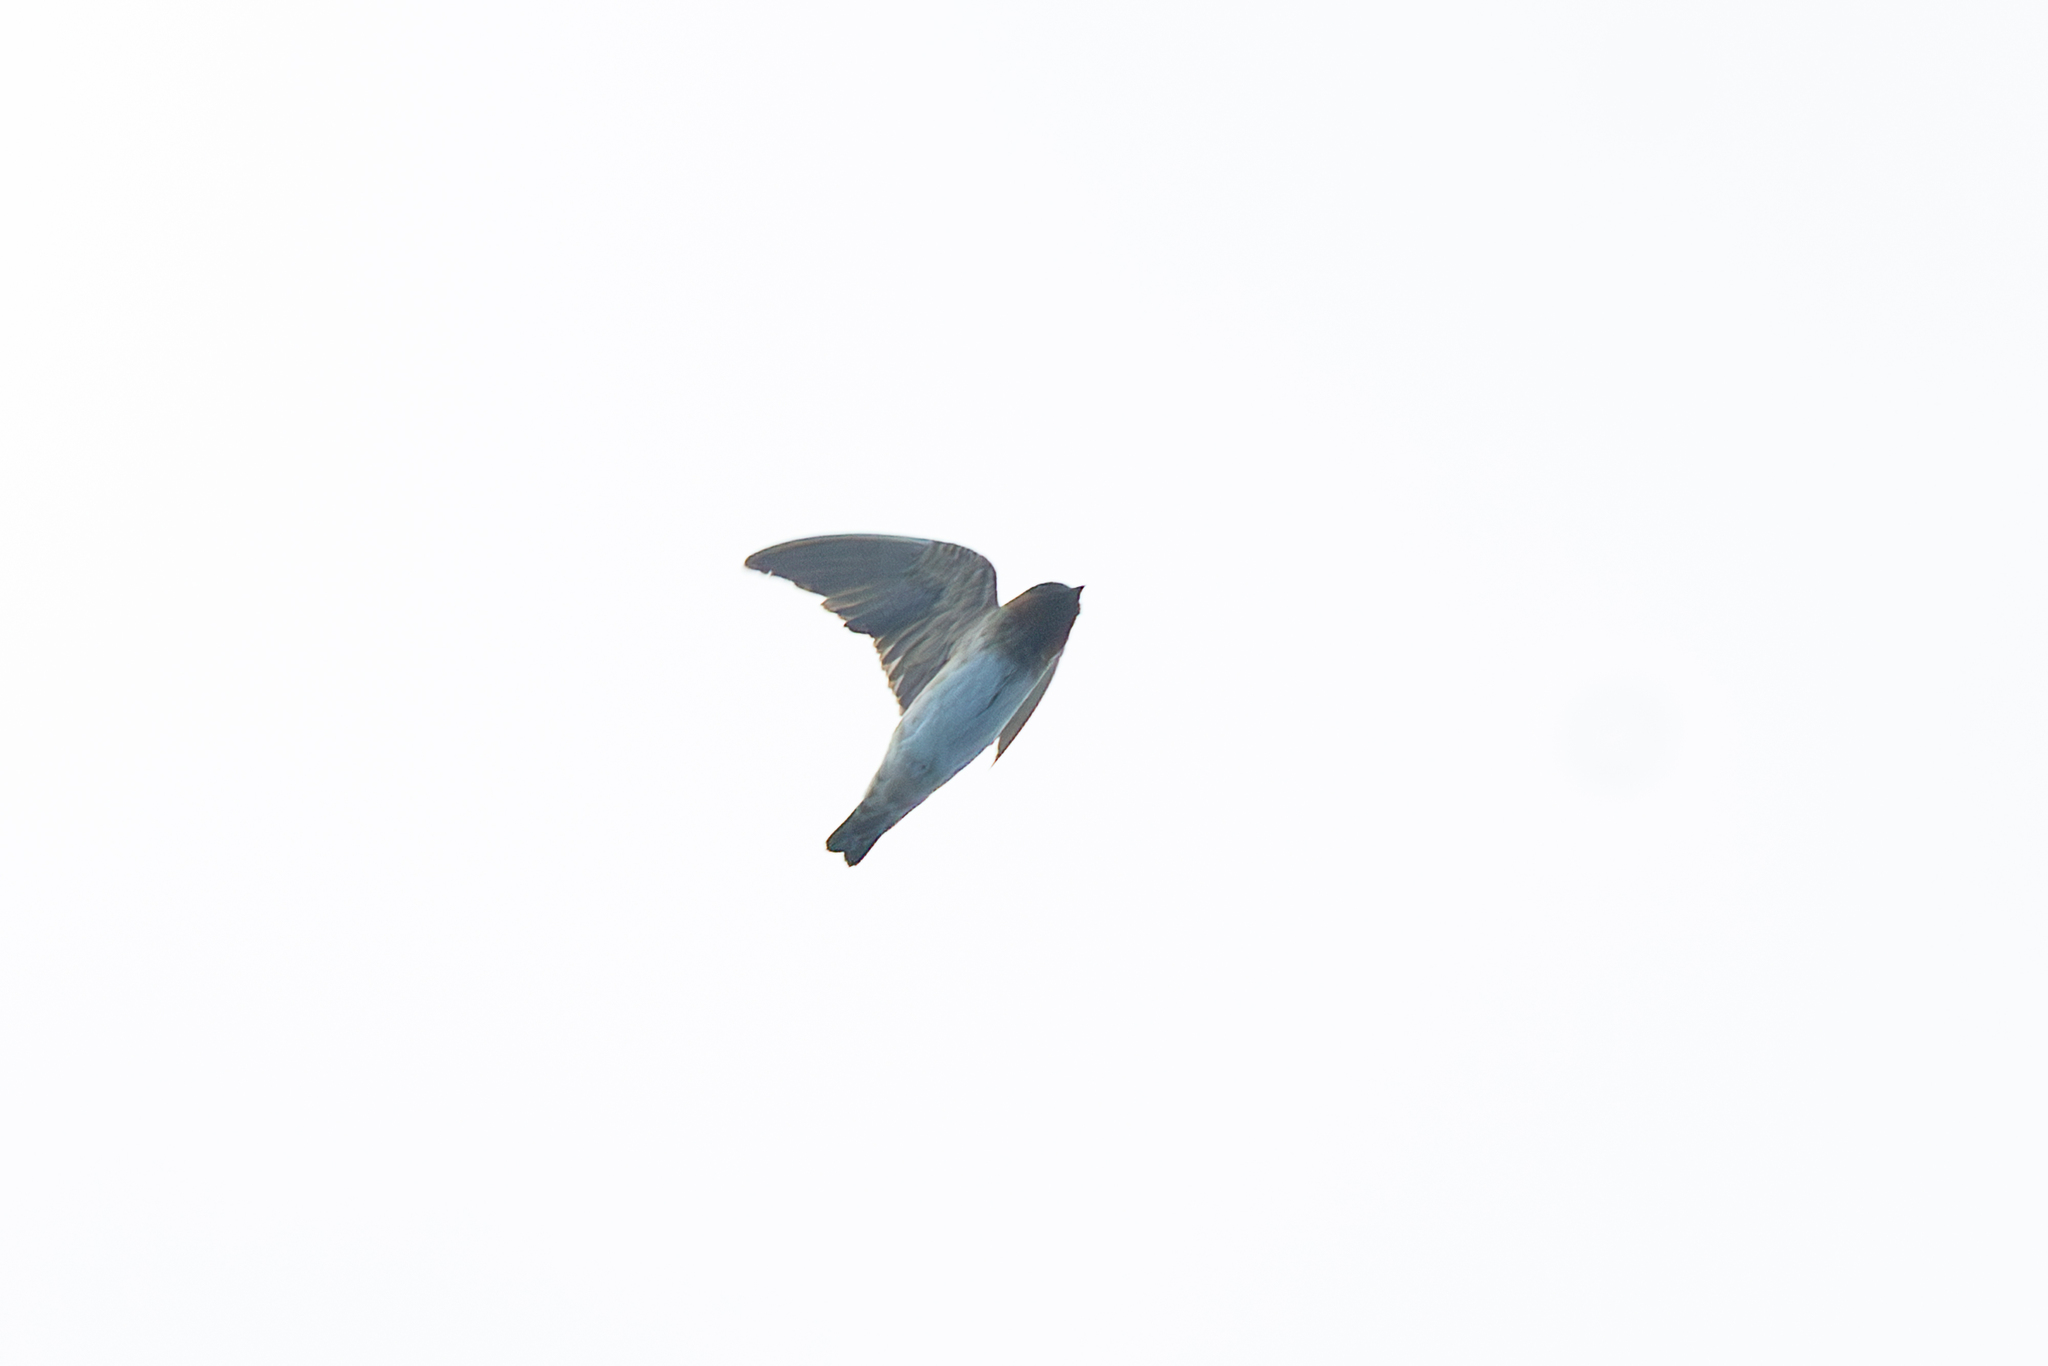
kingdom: Animalia
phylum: Chordata
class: Aves
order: Passeriformes
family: Hirundinidae
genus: Petrochelidon
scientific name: Petrochelidon pyrrhonota
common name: American cliff swallow
